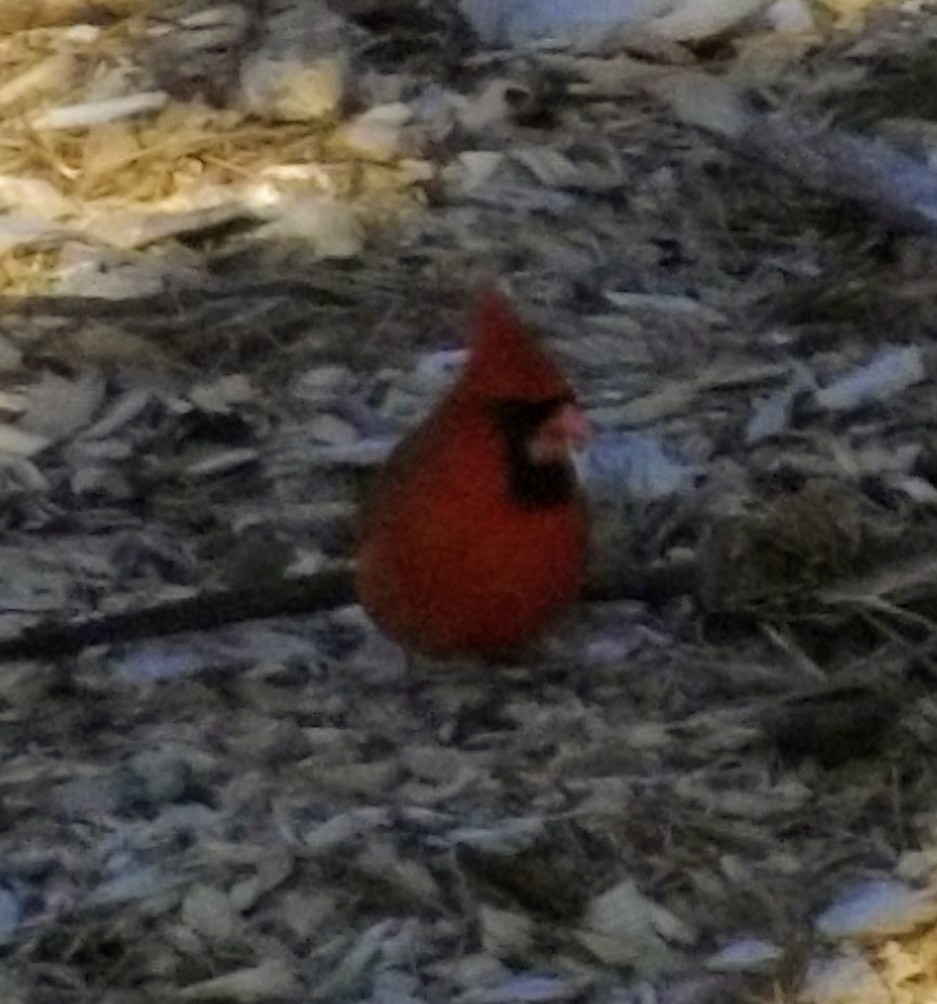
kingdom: Animalia
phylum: Chordata
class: Aves
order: Passeriformes
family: Cardinalidae
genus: Cardinalis
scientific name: Cardinalis cardinalis
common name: Northern cardinal
